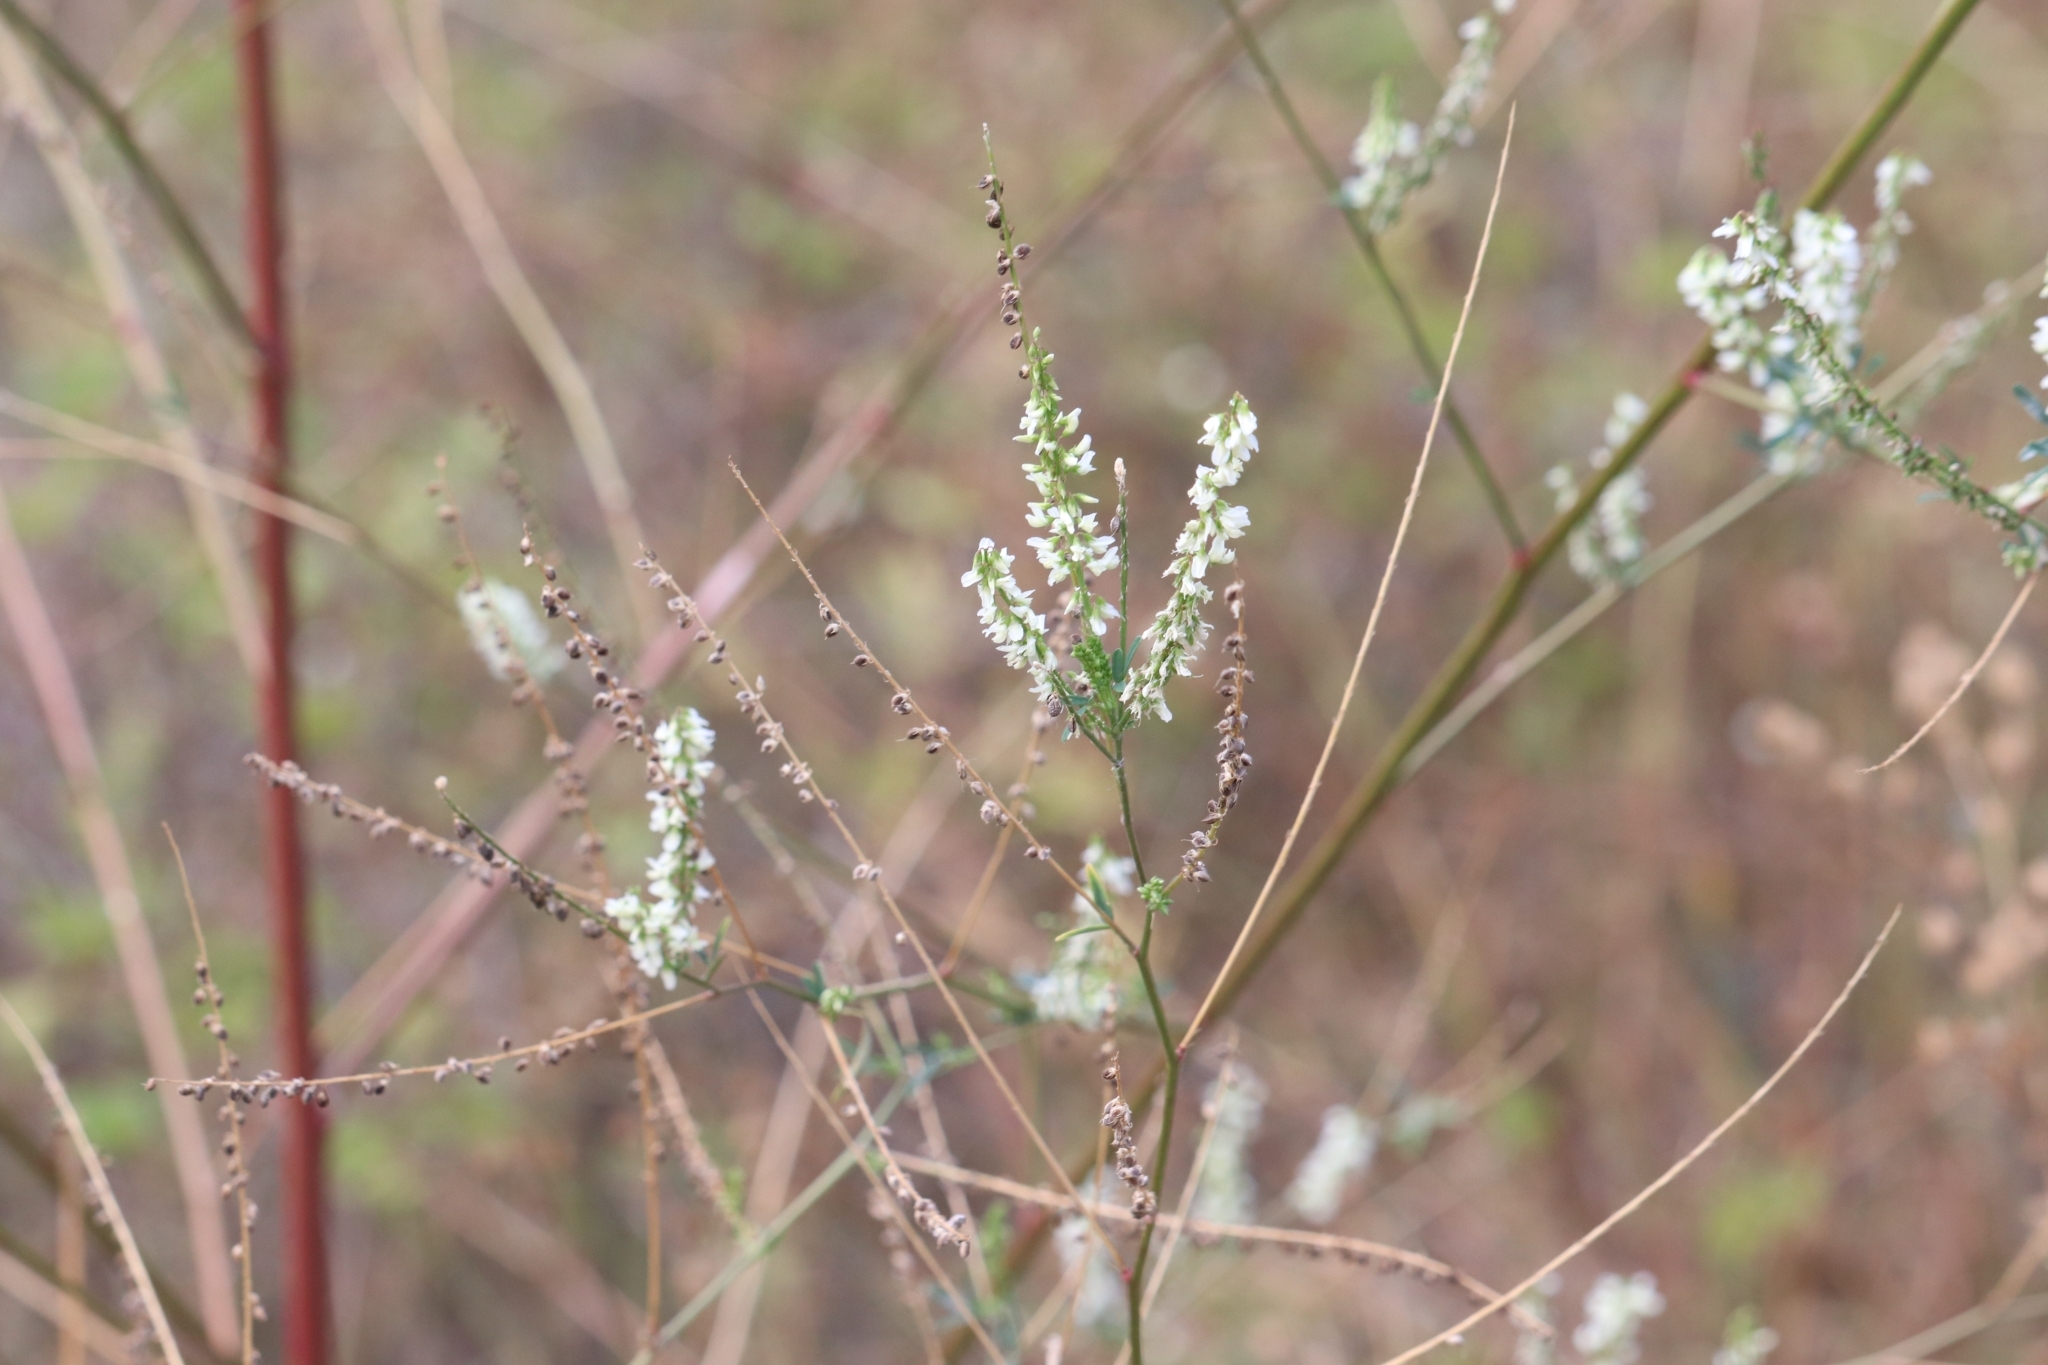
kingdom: Plantae
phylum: Tracheophyta
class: Magnoliopsida
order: Fabales
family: Fabaceae
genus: Melilotus
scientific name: Melilotus albus
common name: White melilot
